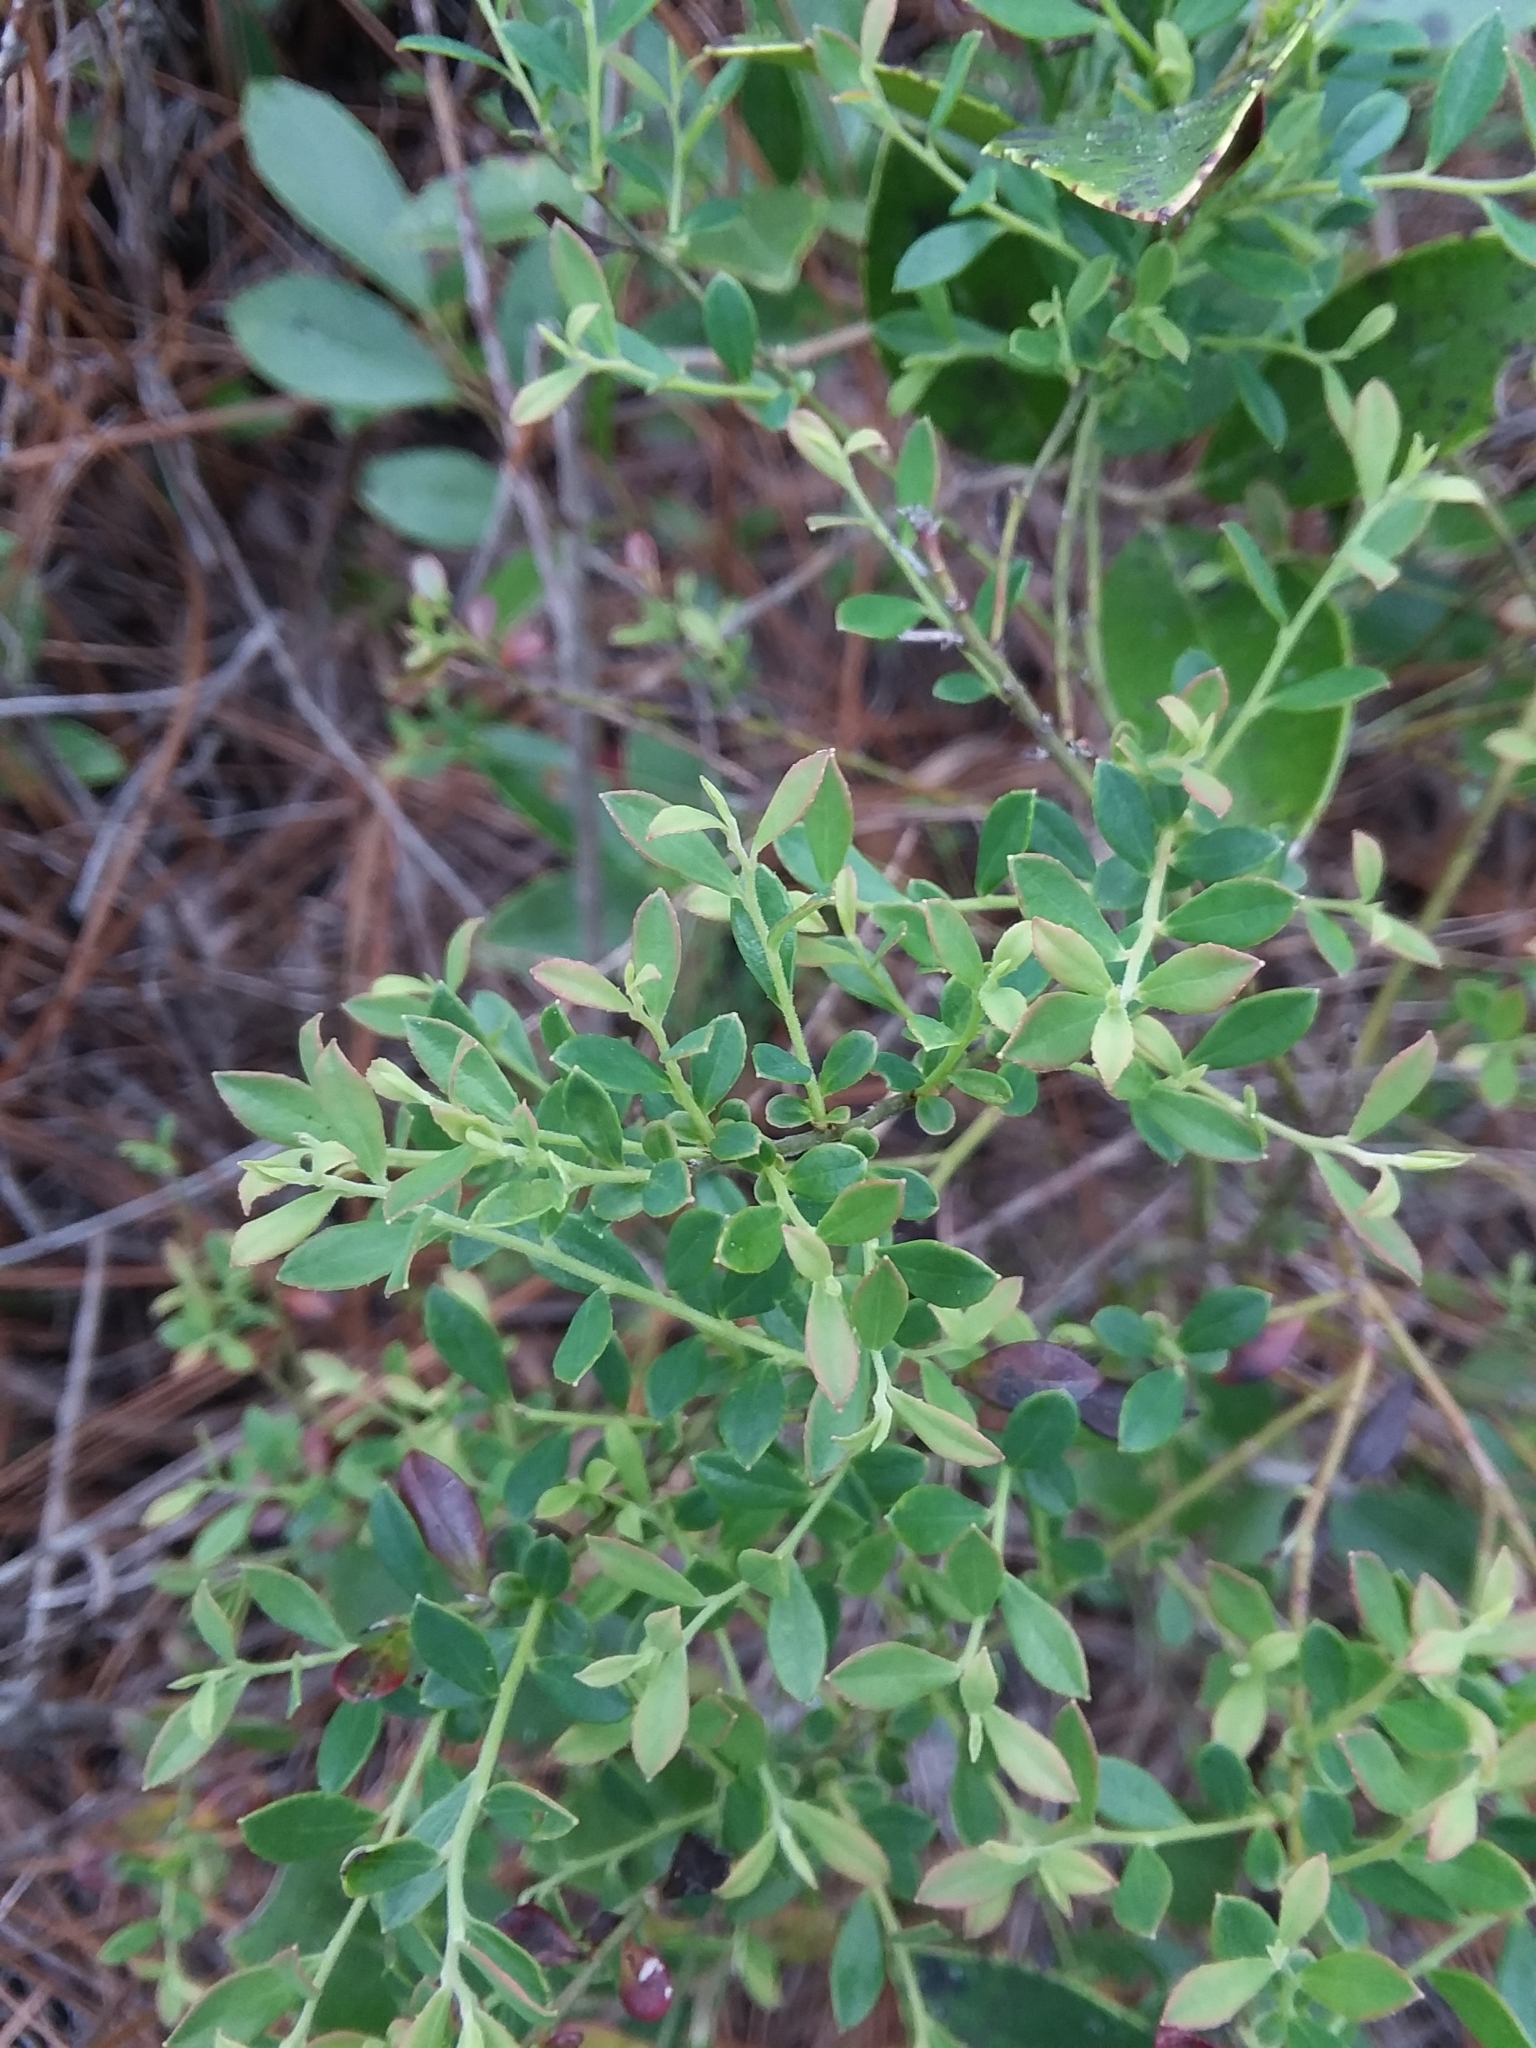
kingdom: Plantae
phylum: Tracheophyta
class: Magnoliopsida
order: Ericales
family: Ericaceae
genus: Vaccinium
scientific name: Vaccinium darrowii
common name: Darrow's blueberry
